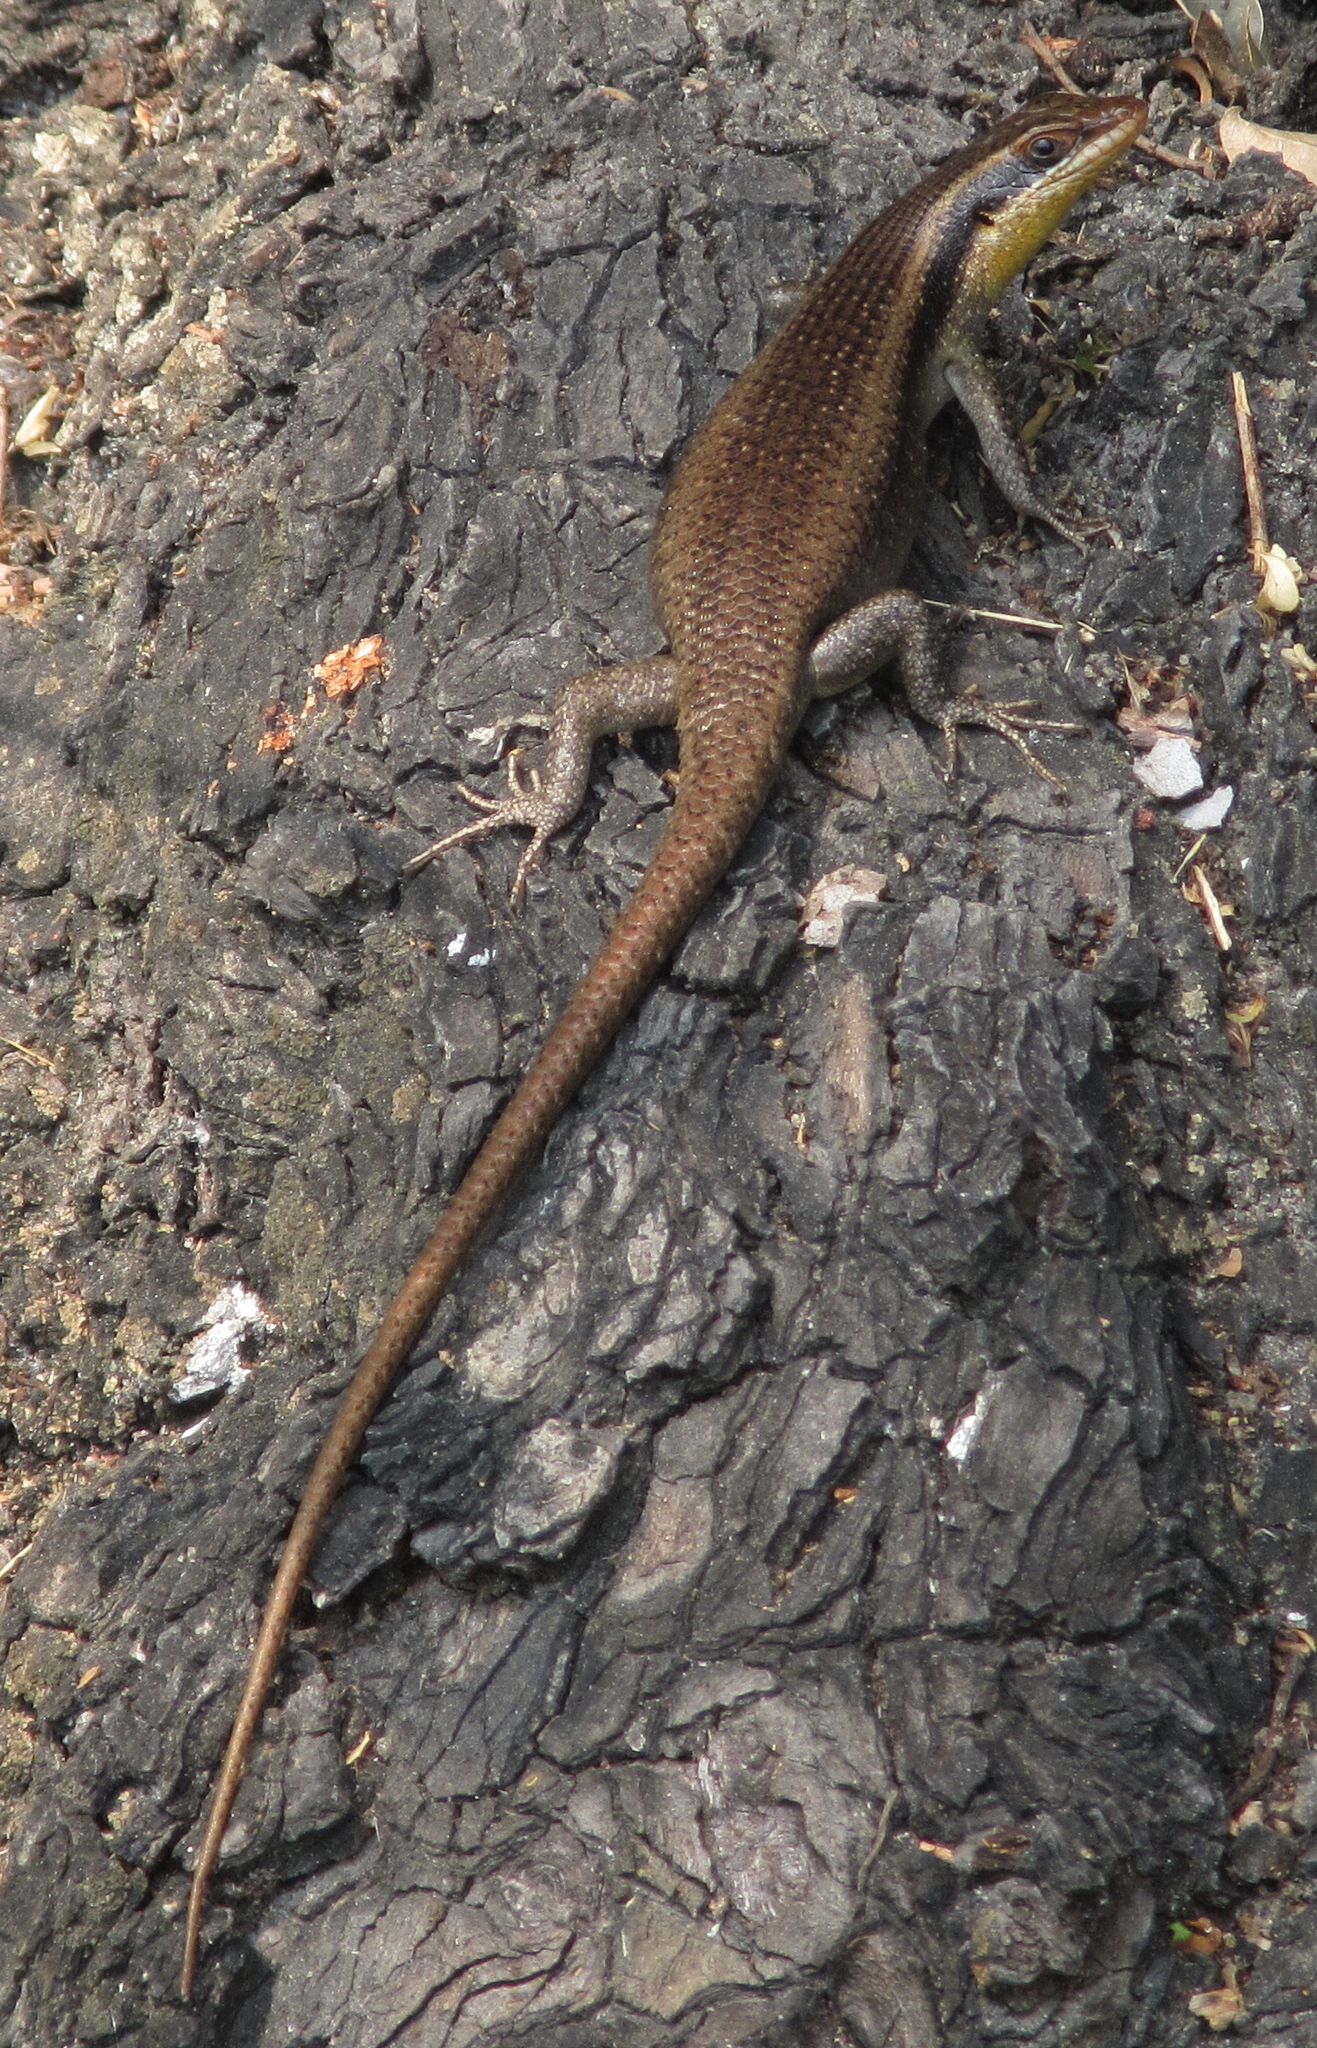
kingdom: Animalia
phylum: Chordata
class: Squamata
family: Scincidae
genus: Trachylepis
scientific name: Trachylepis wahlbergii
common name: Wahlberg’s striped skink
